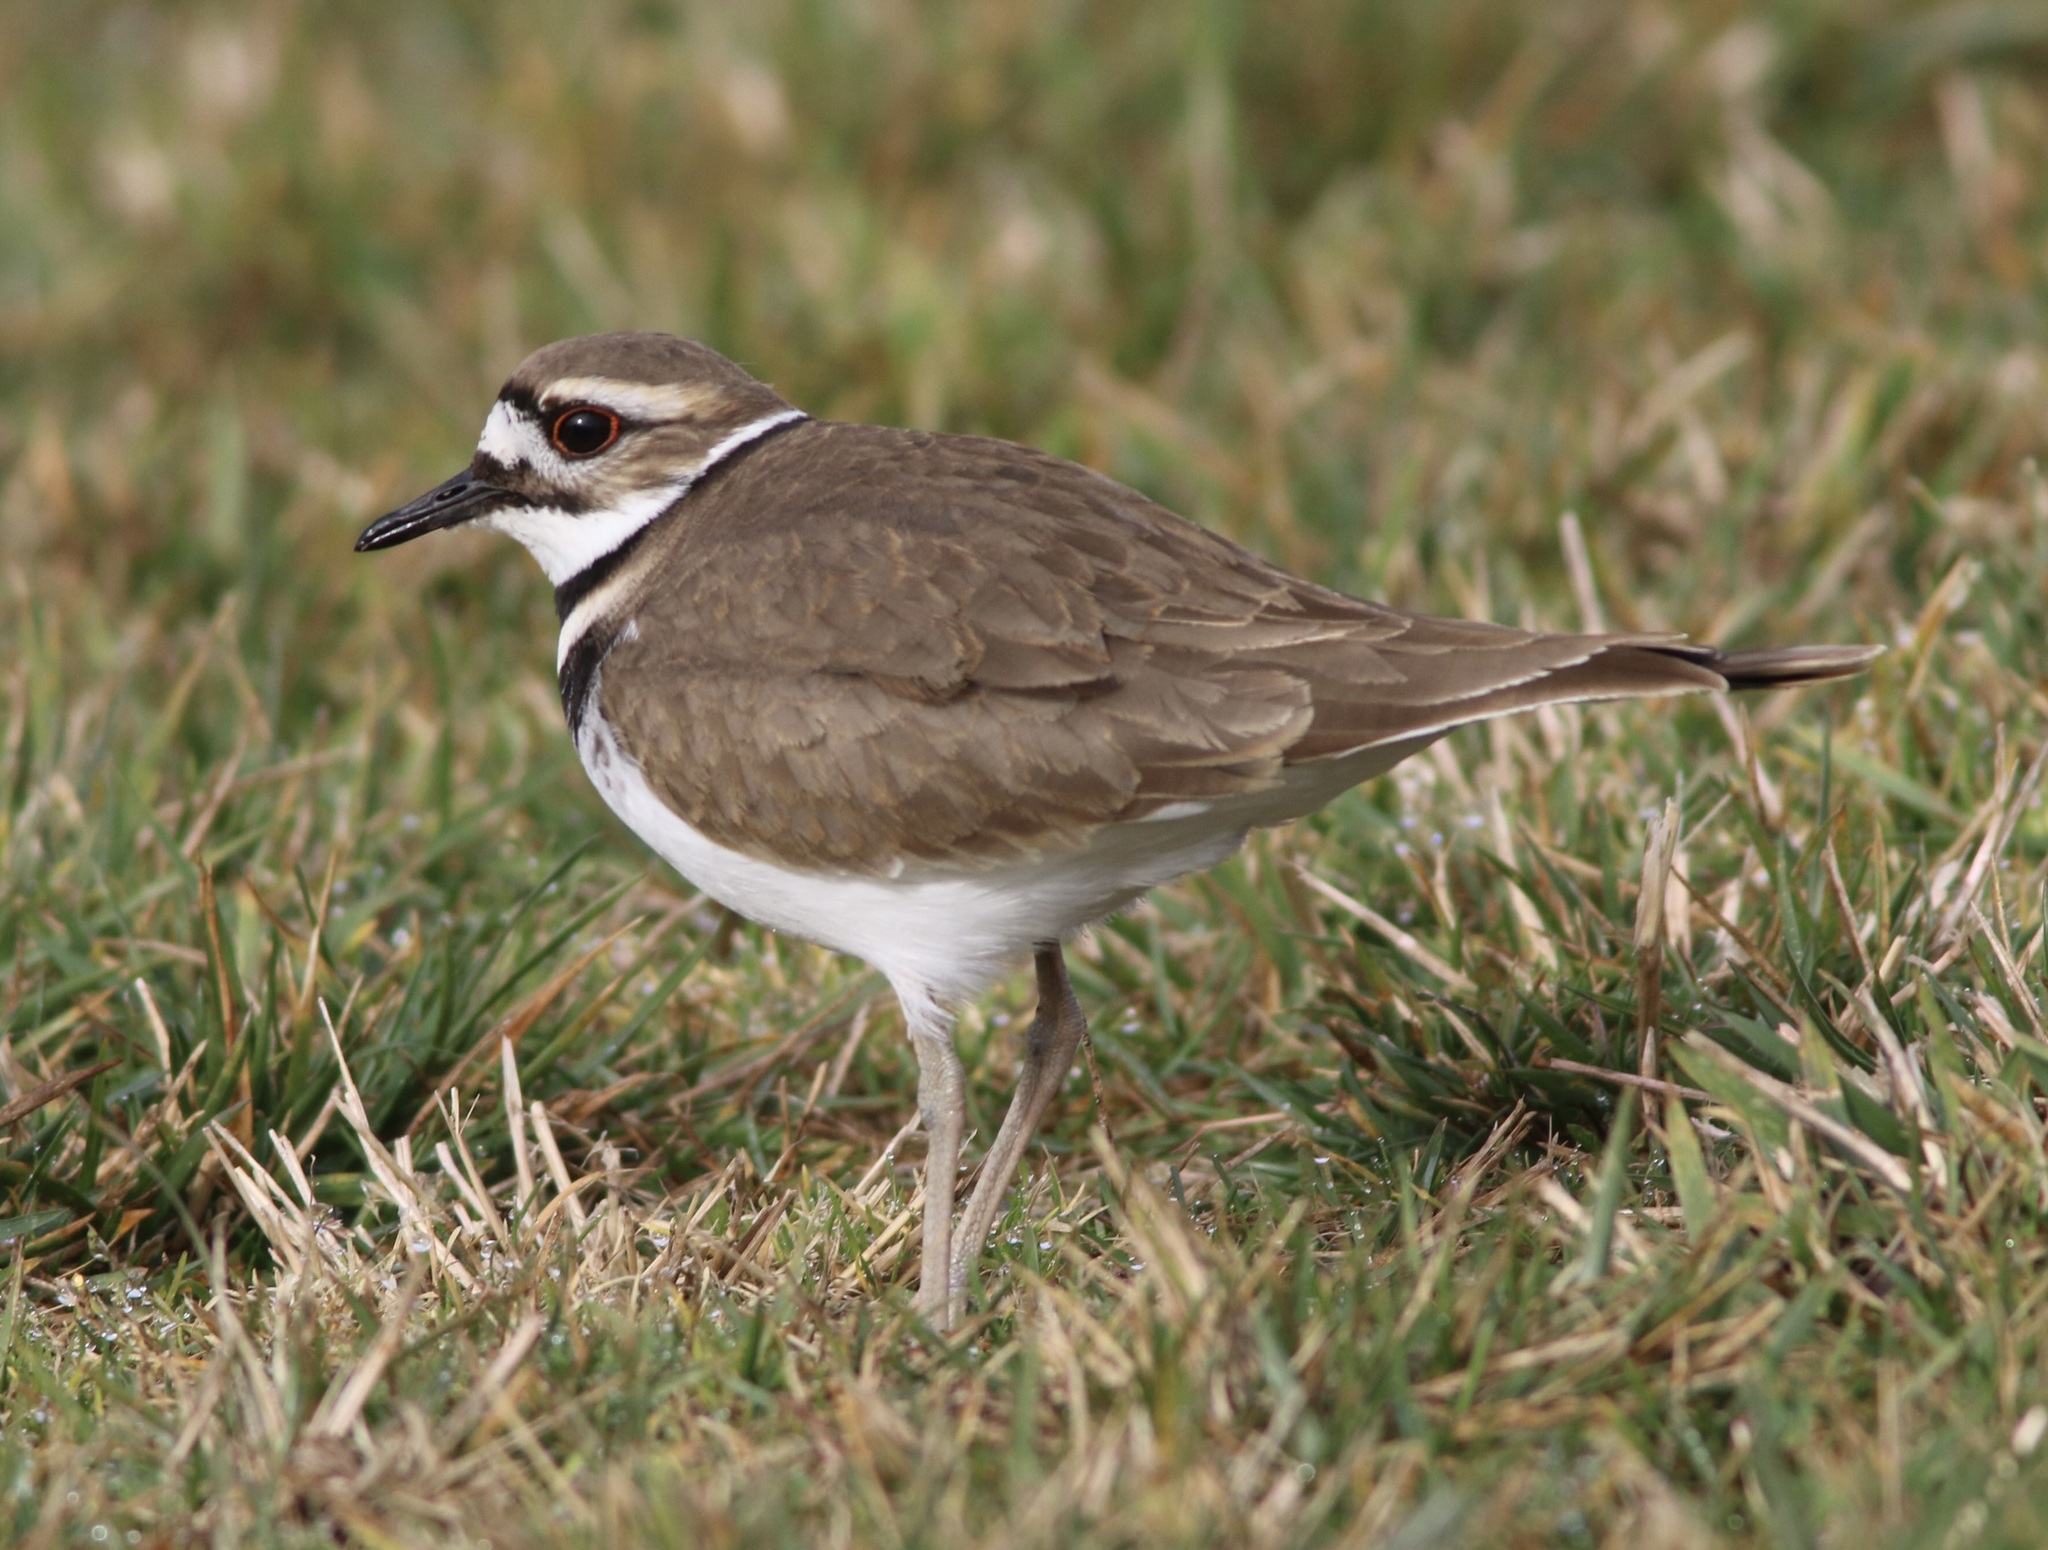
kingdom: Animalia
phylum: Chordata
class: Aves
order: Charadriiformes
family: Charadriidae
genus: Charadrius
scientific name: Charadrius vociferus
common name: Killdeer
